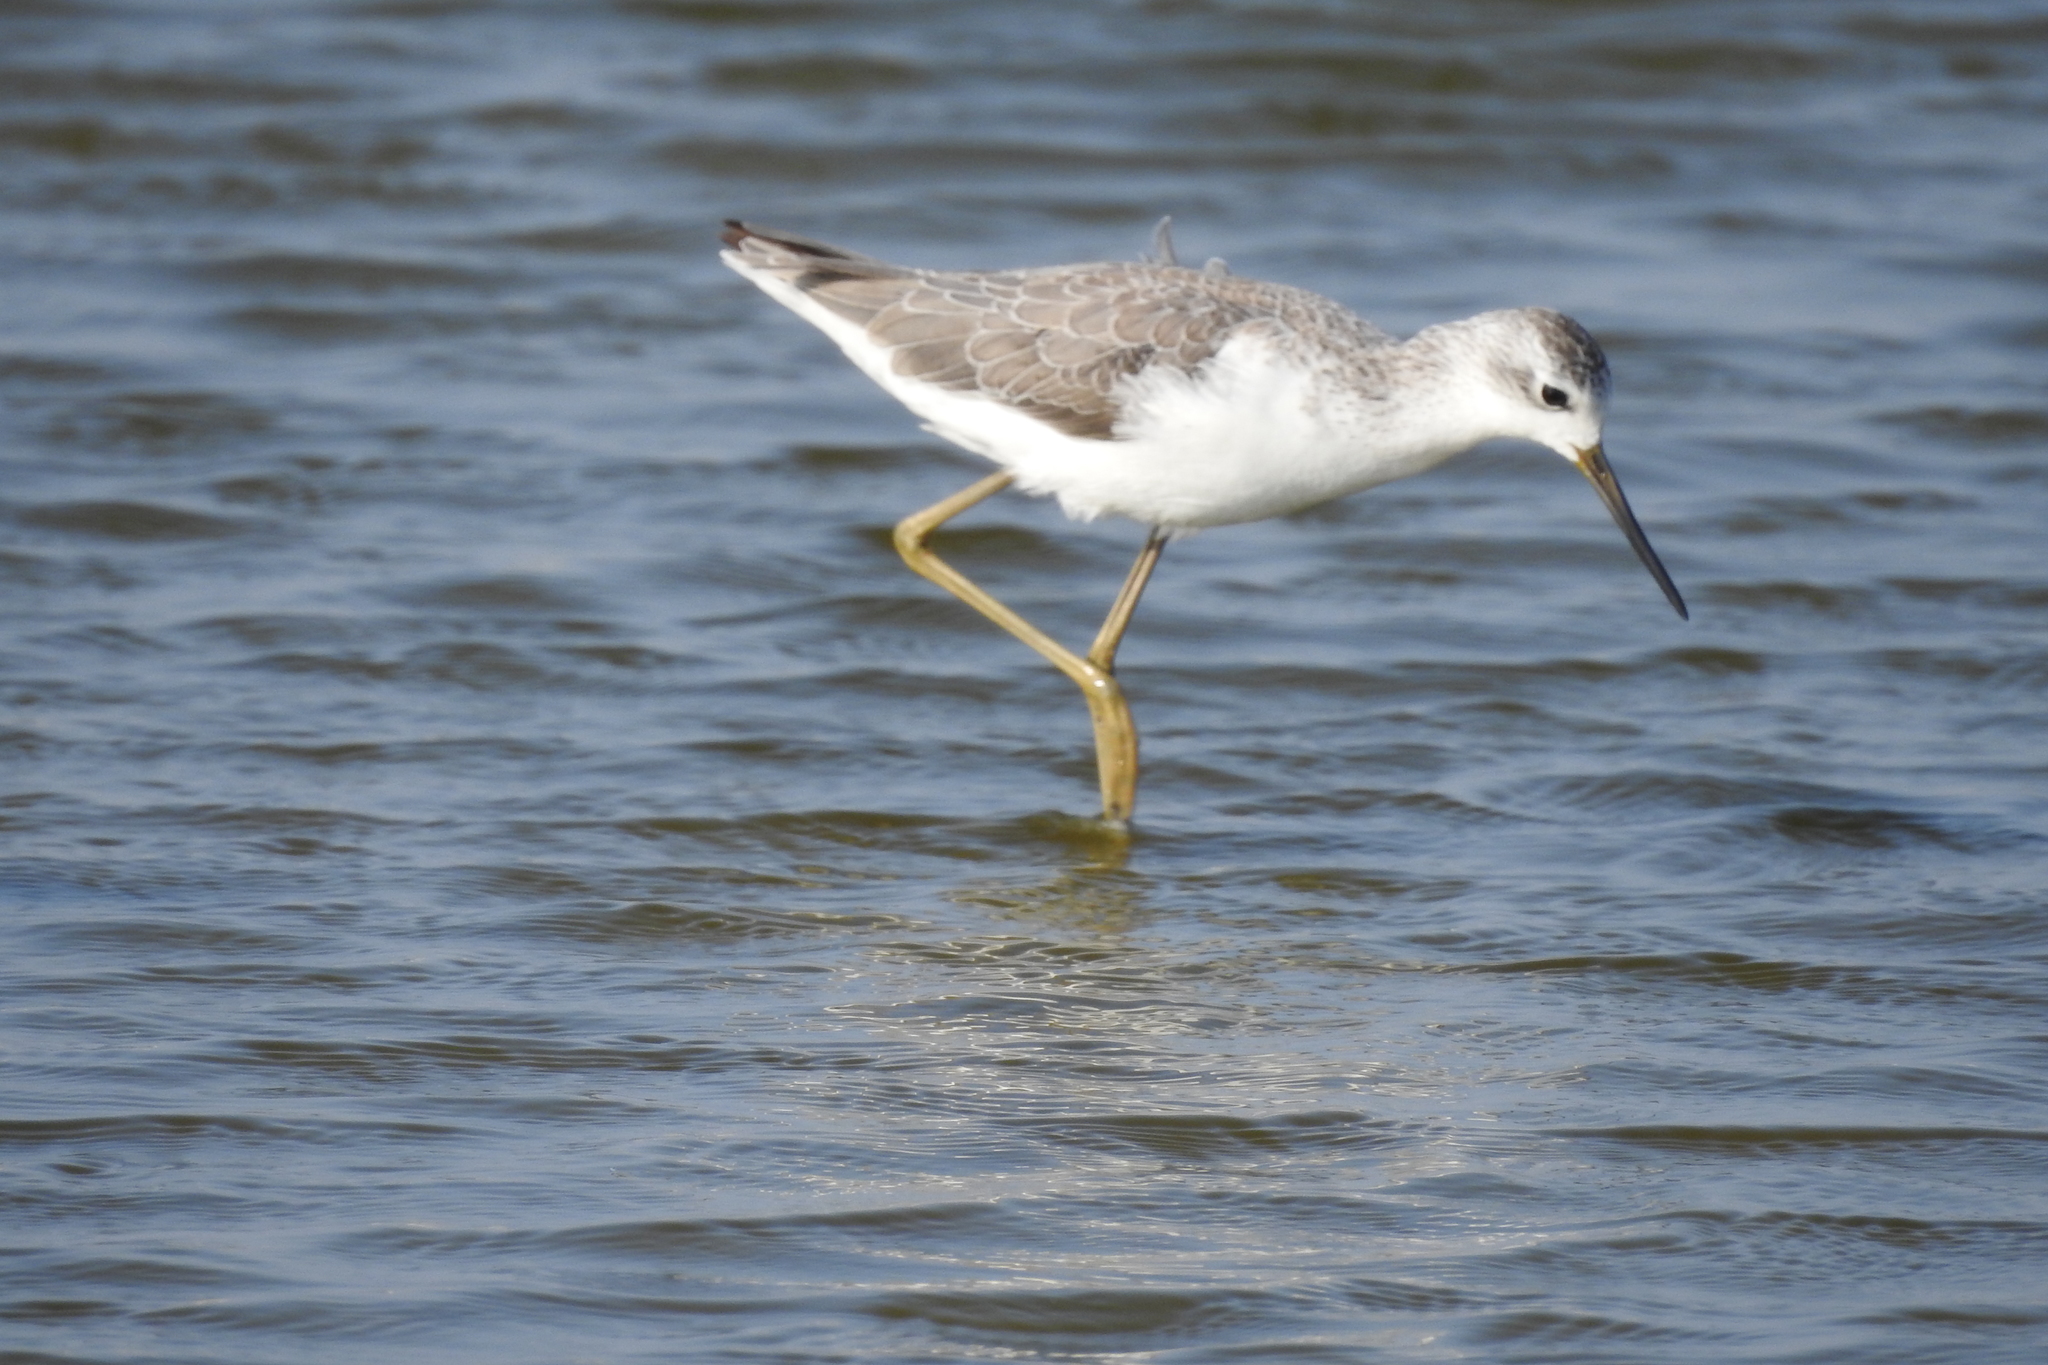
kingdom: Animalia
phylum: Chordata
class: Aves
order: Charadriiformes
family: Scolopacidae
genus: Tringa
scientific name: Tringa stagnatilis
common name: Marsh sandpiper
